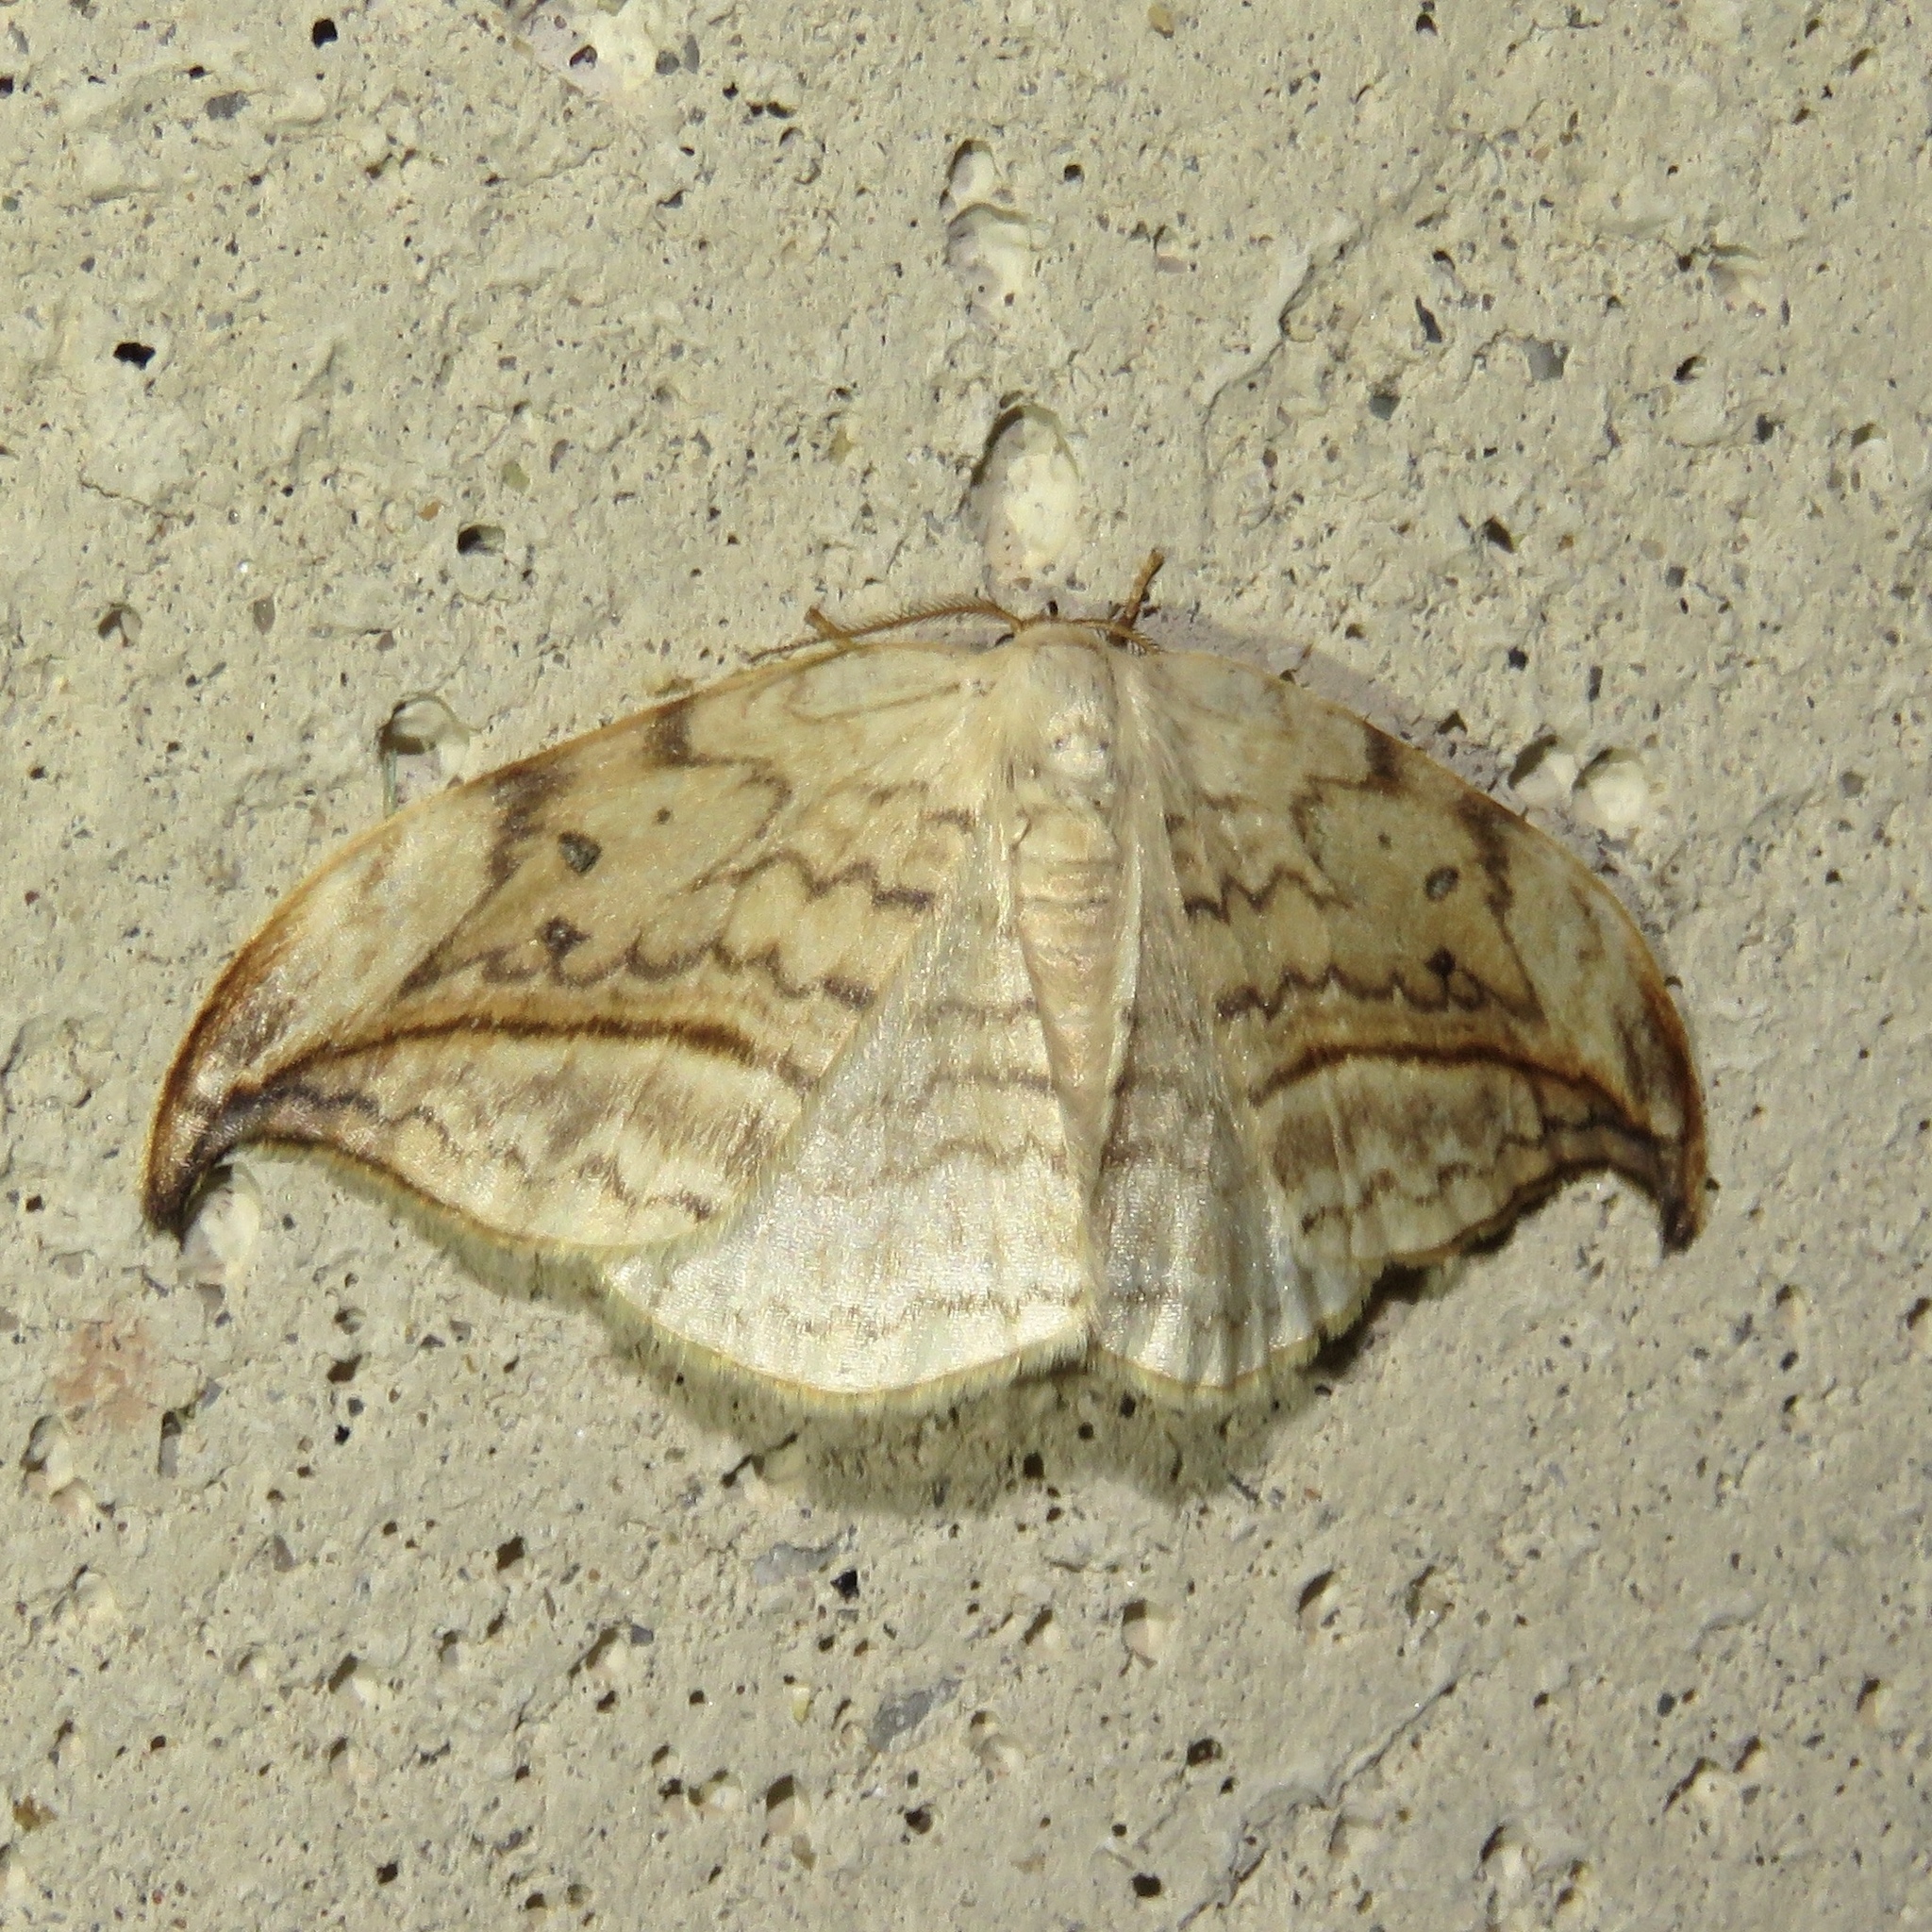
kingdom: Animalia
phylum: Arthropoda
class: Insecta
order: Lepidoptera
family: Drepanidae
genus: Drepana
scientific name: Drepana arcuata
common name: Arched hooktip moth
